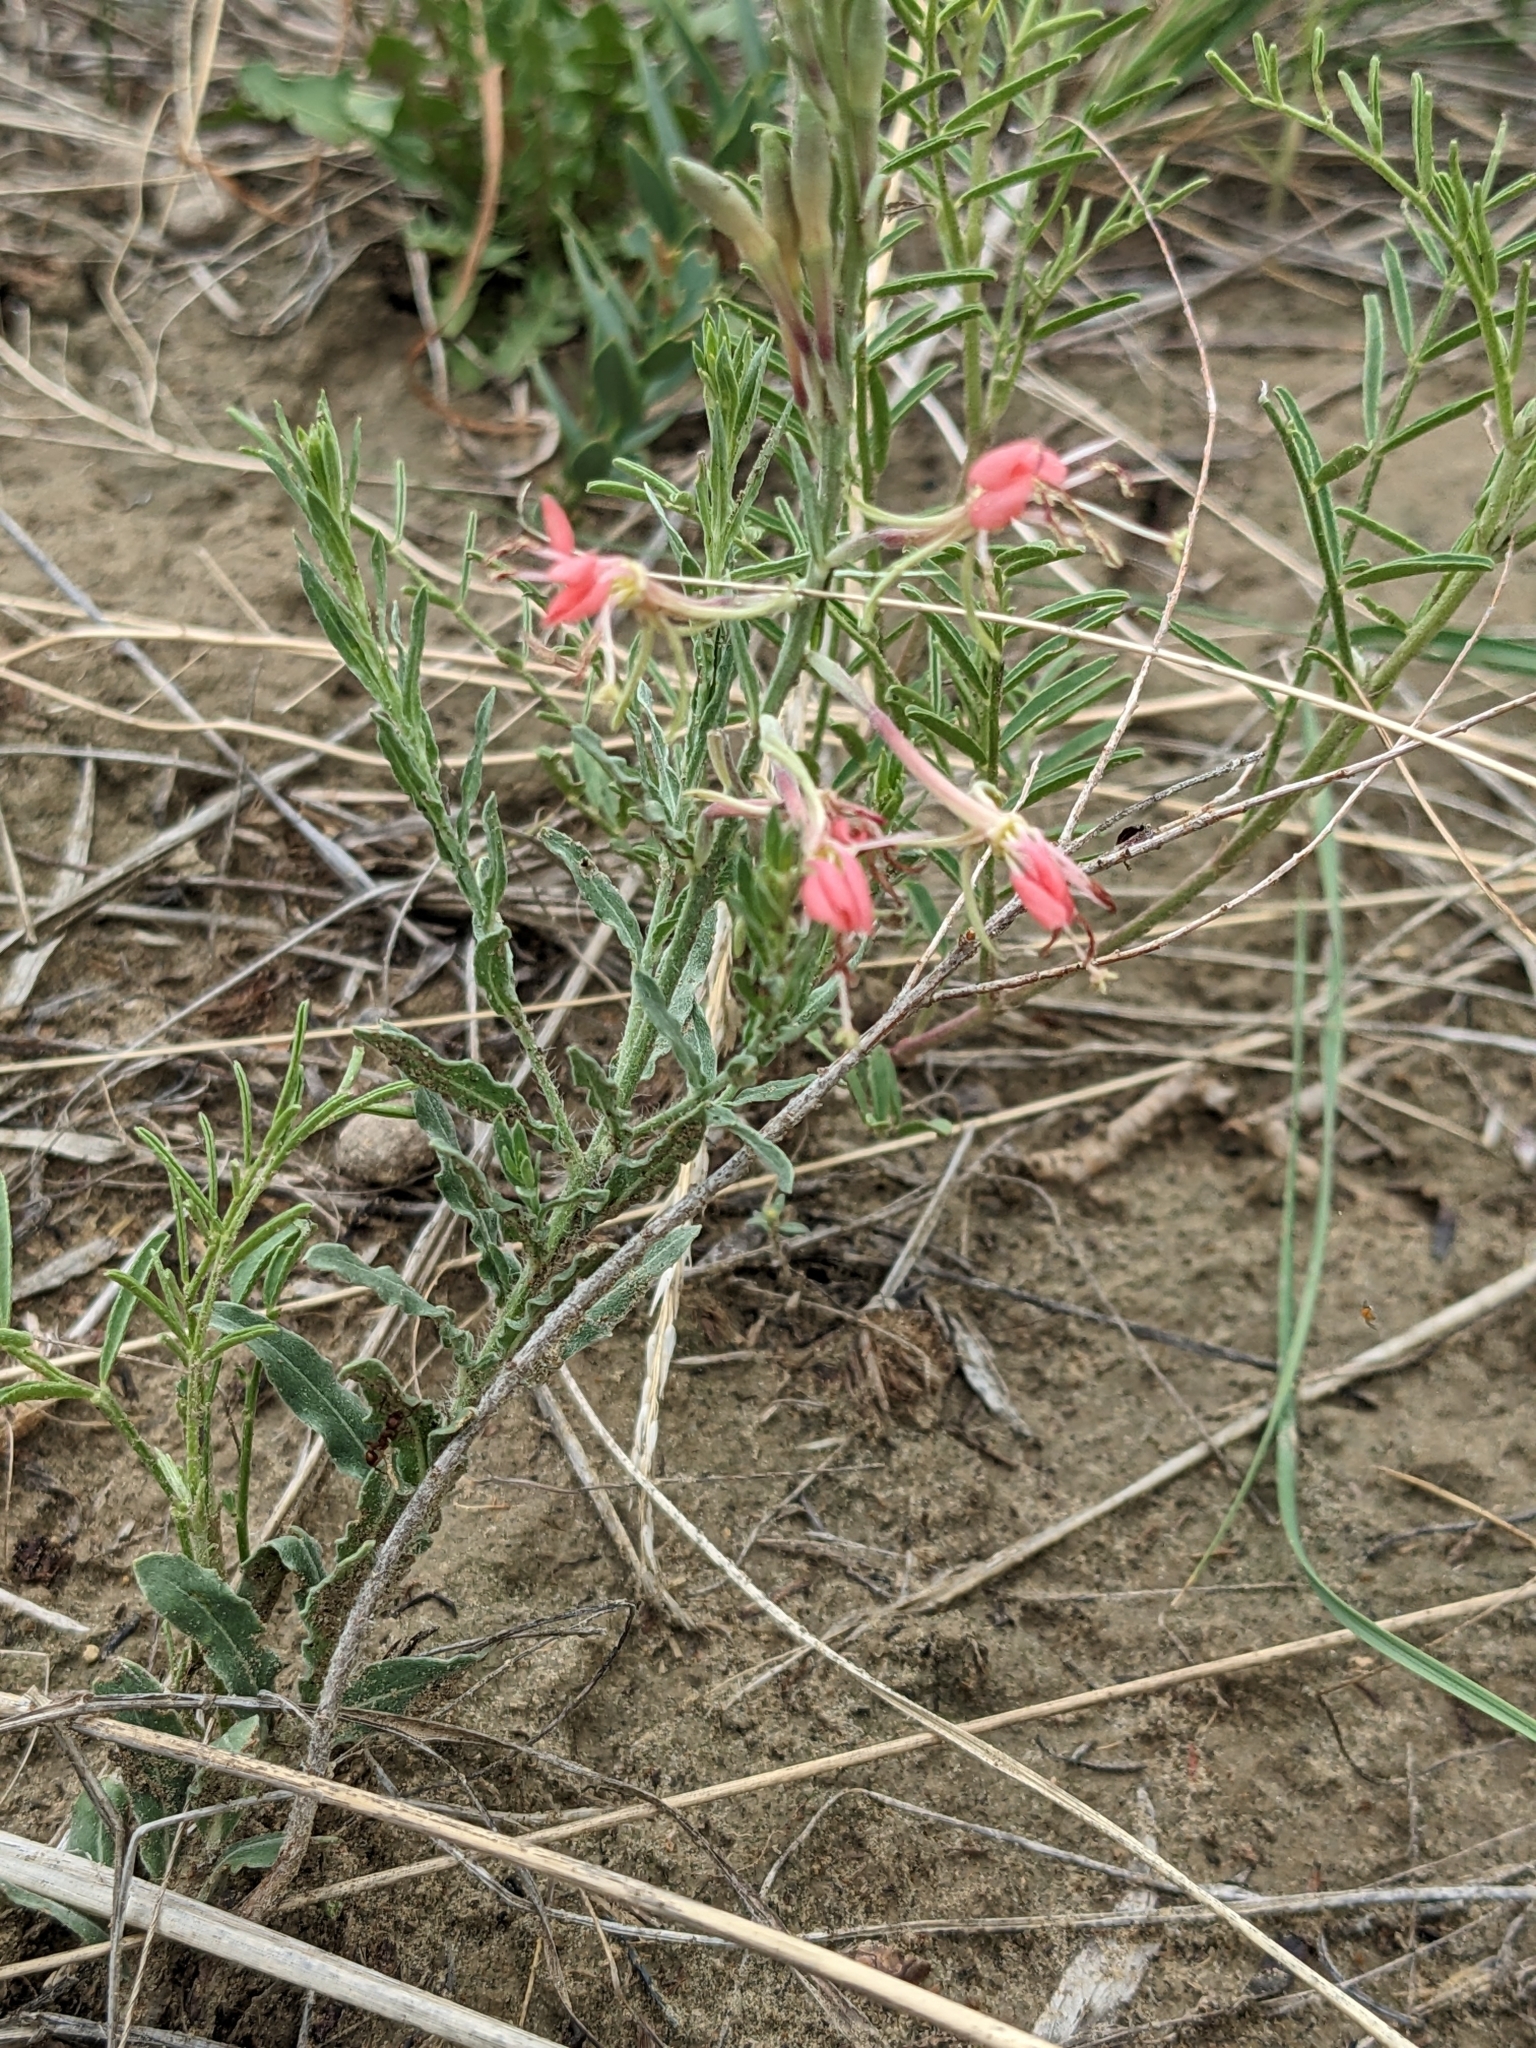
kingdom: Plantae
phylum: Tracheophyta
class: Magnoliopsida
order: Myrtales
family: Onagraceae
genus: Oenothera
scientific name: Oenothera suffrutescens
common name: Scarlet beeblossom
